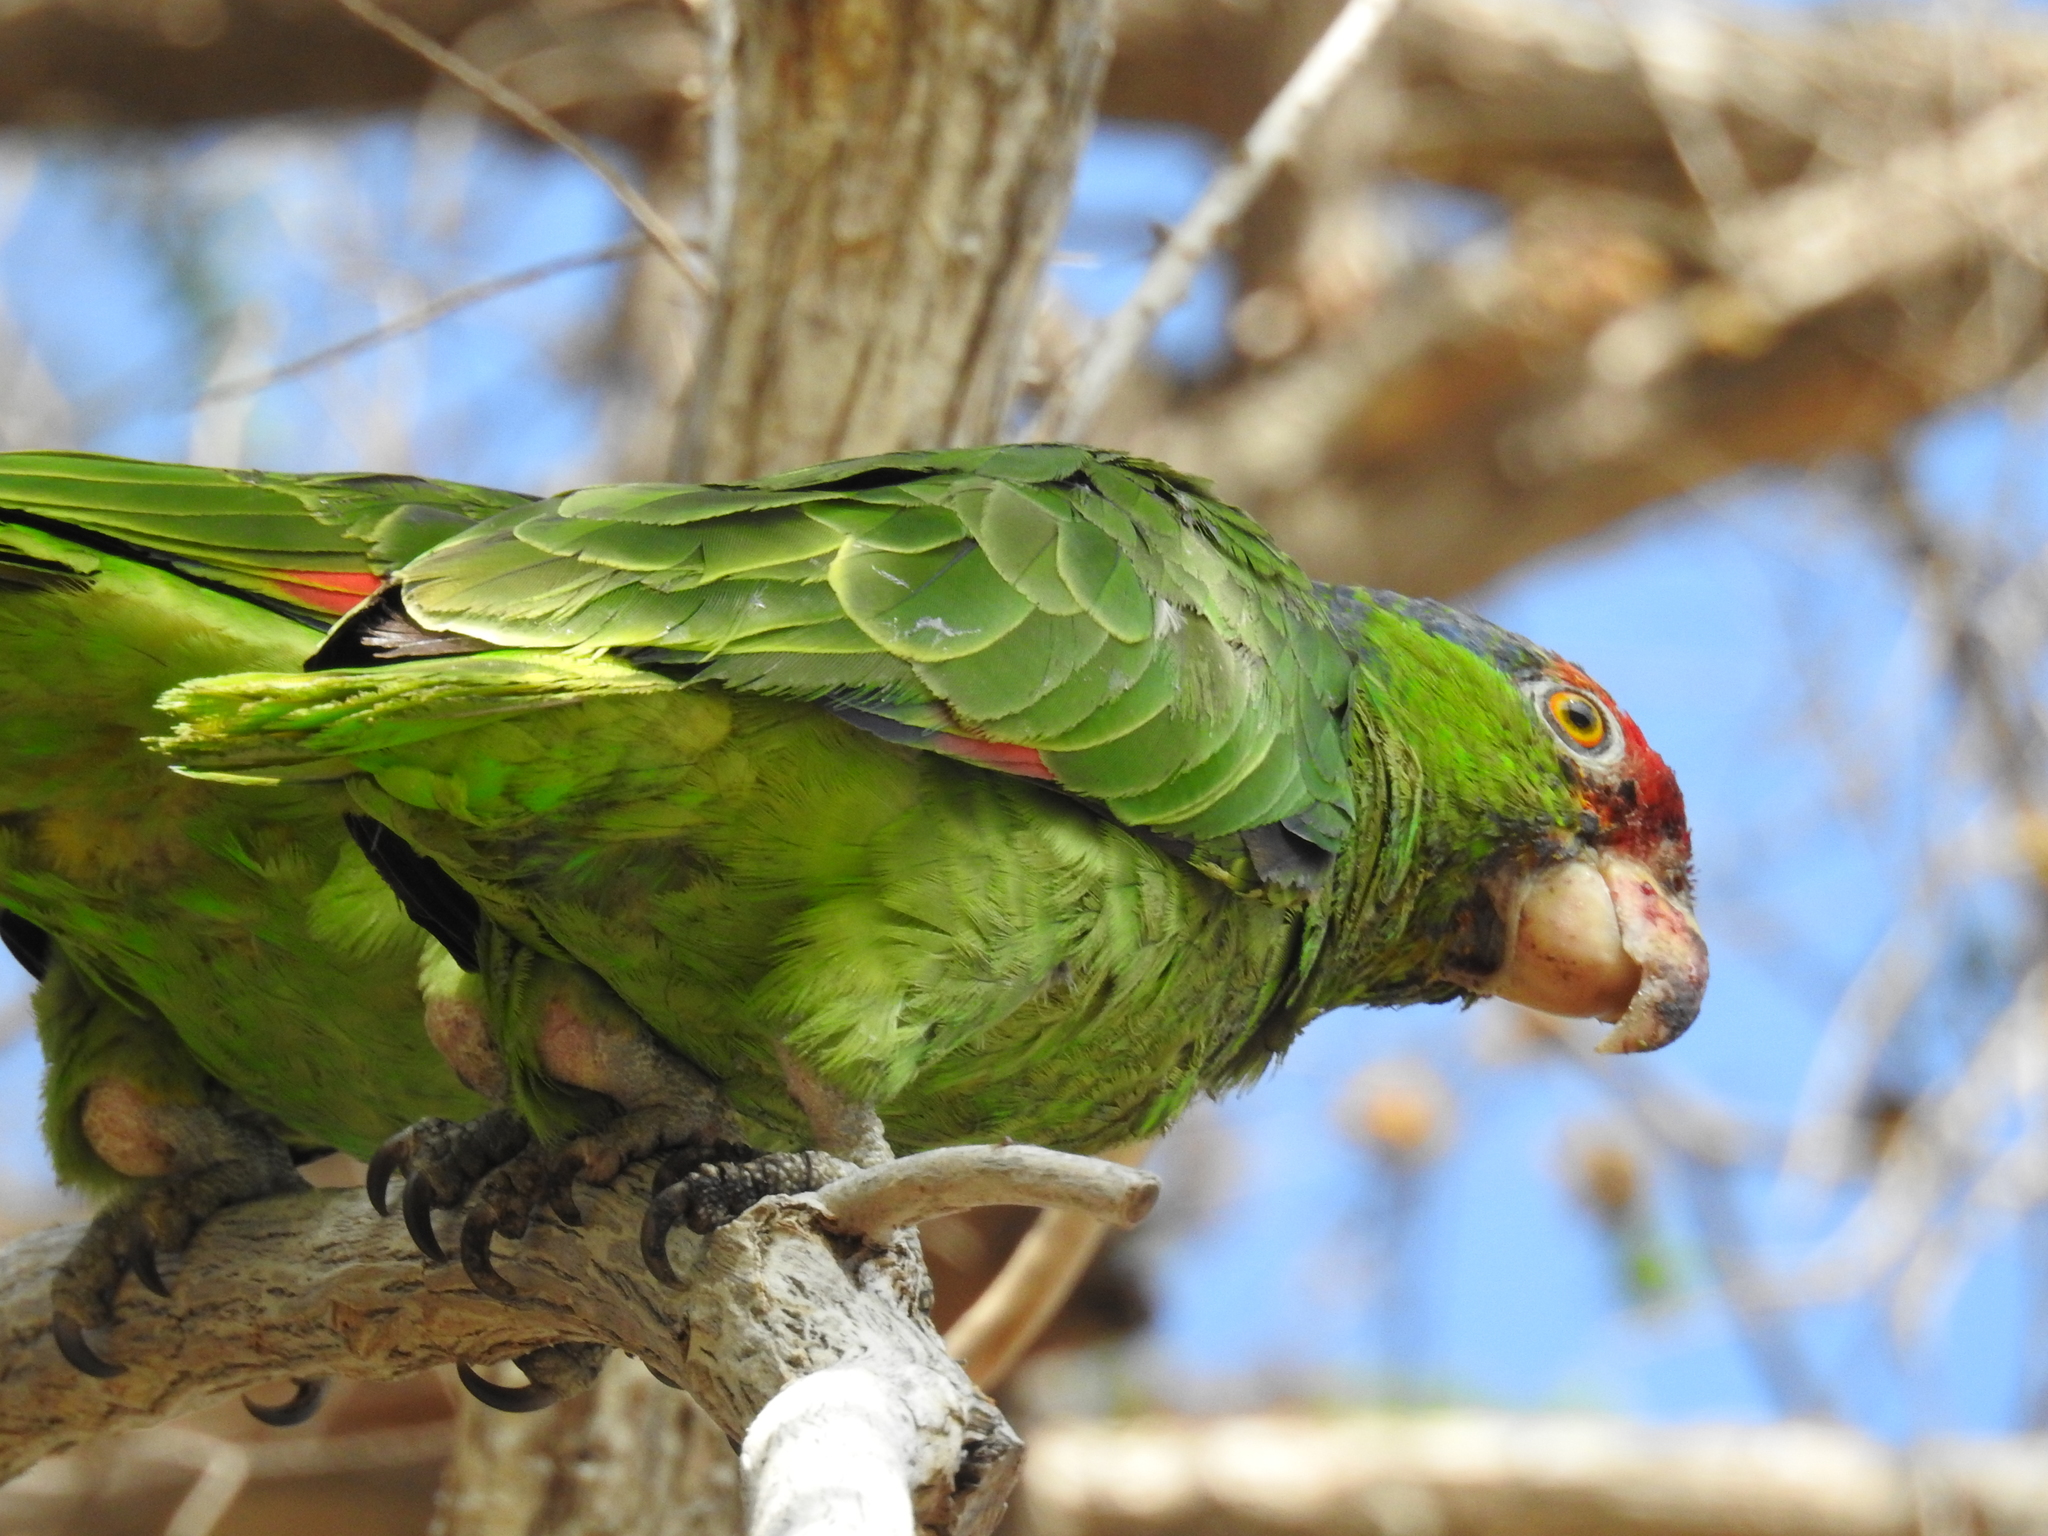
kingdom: Animalia
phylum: Chordata
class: Aves
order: Psittaciformes
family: Psittacidae
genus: Amazona
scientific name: Amazona viridigenalis
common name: Red-crowned amazon
